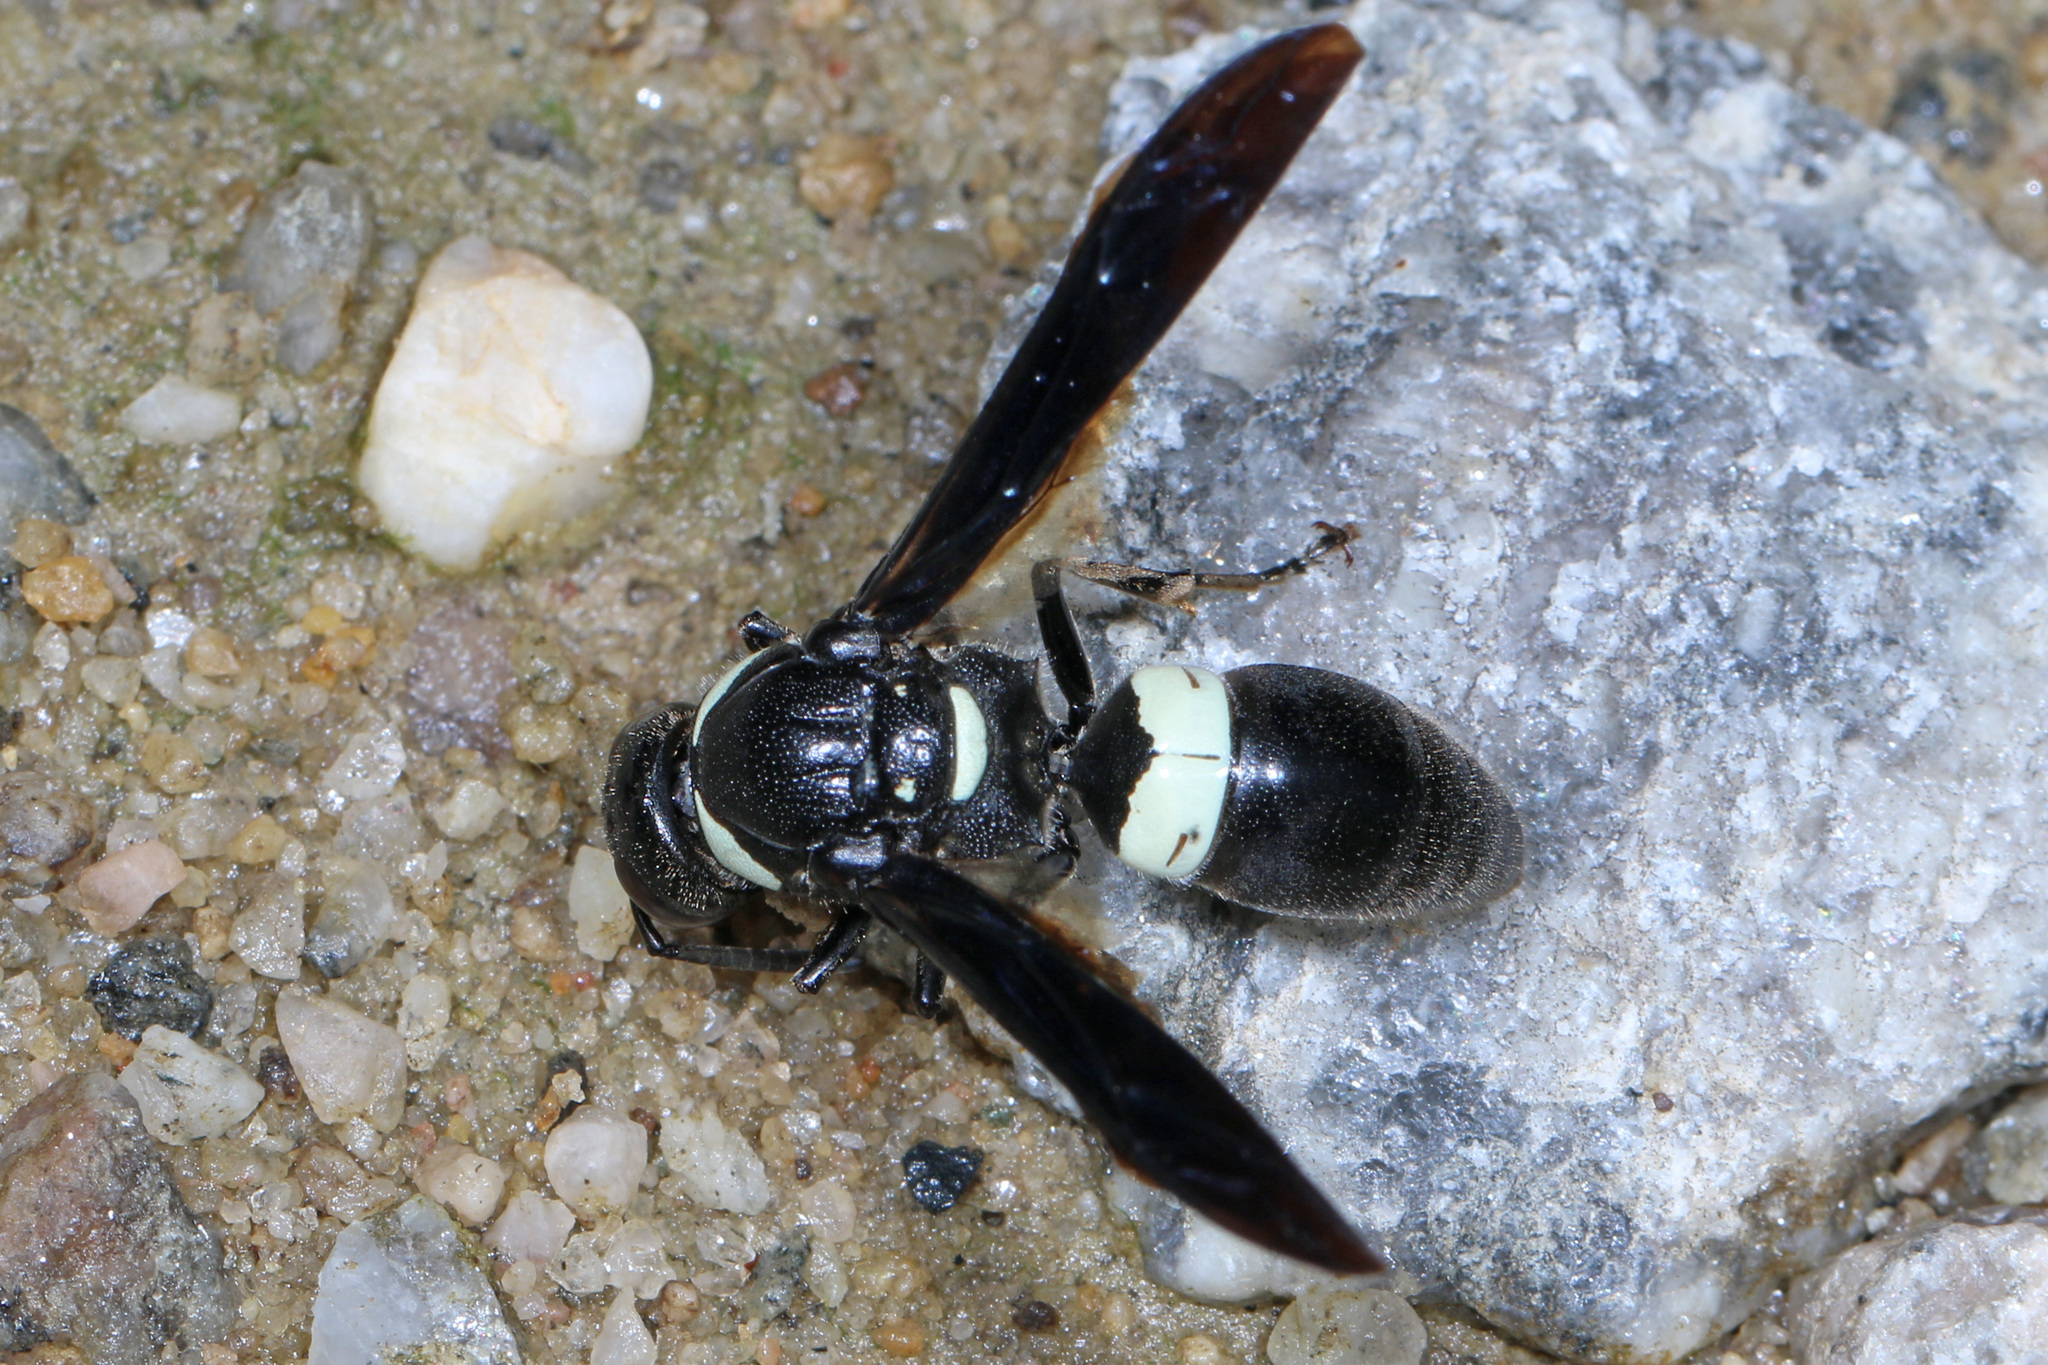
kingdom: Animalia
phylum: Arthropoda
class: Insecta
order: Hymenoptera
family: Eumenidae
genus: Monobia
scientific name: Monobia quadridens
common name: Four-toothed mason wasp
